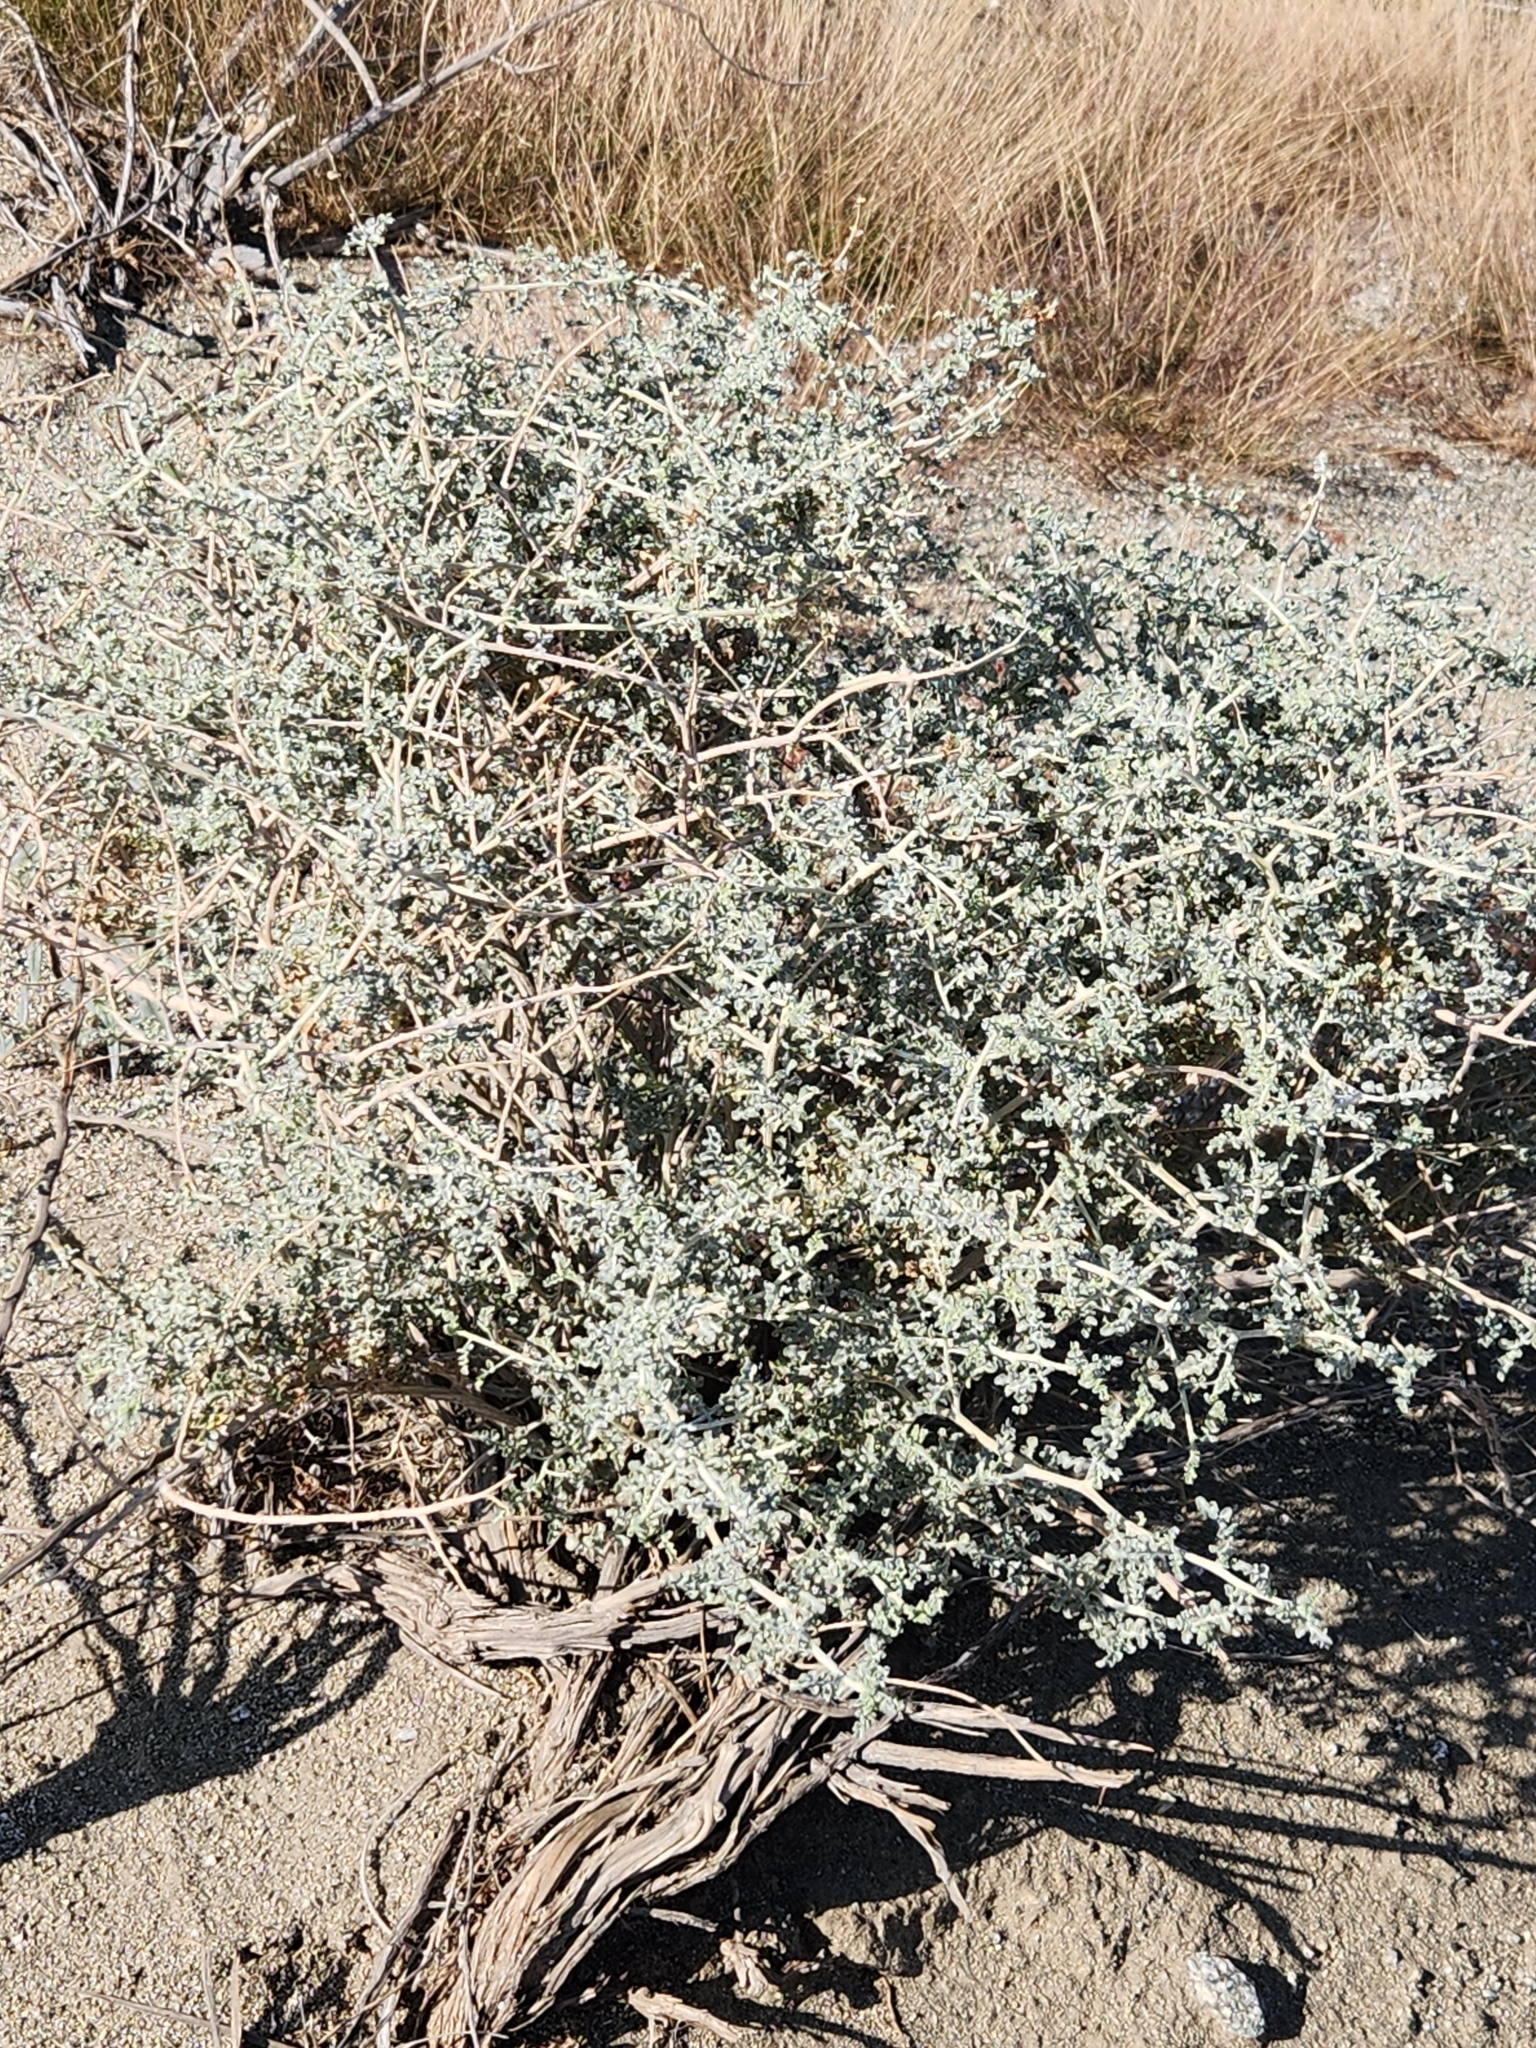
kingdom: Plantae
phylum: Tracheophyta
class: Magnoliopsida
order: Asterales
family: Asteraceae
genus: Ambrosia
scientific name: Ambrosia dumosa
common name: Bur-sage
